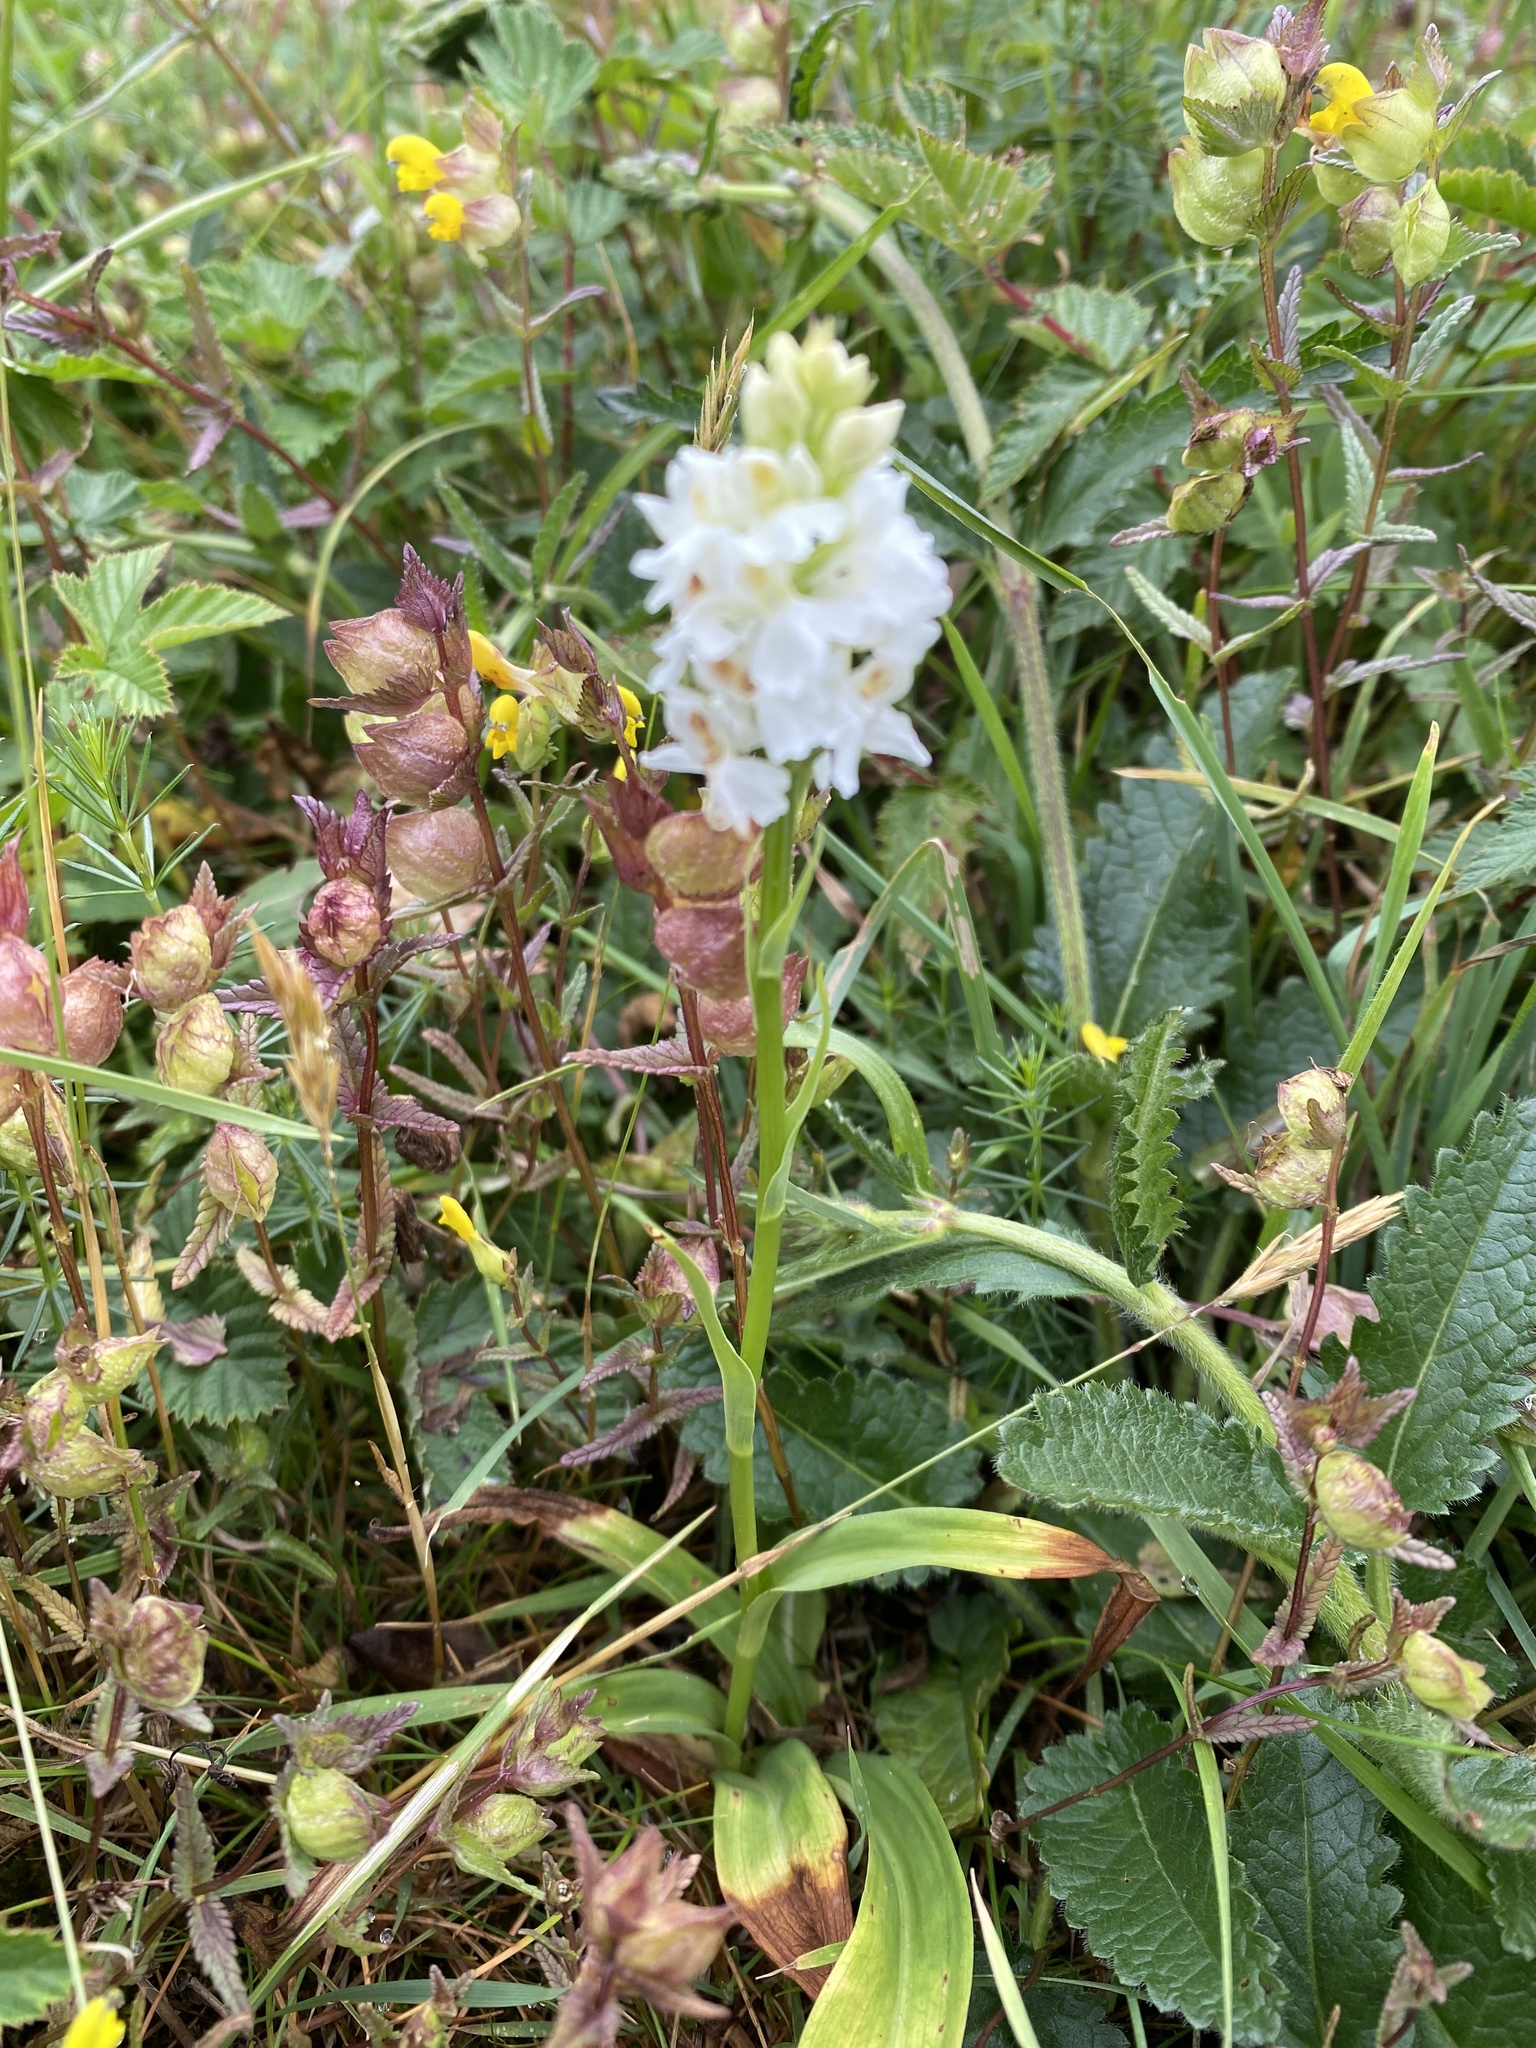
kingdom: Plantae
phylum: Tracheophyta
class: Liliopsida
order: Asparagales
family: Orchidaceae
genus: Dactylorhiza
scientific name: Dactylorhiza maculata
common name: Heath spotted-orchid
